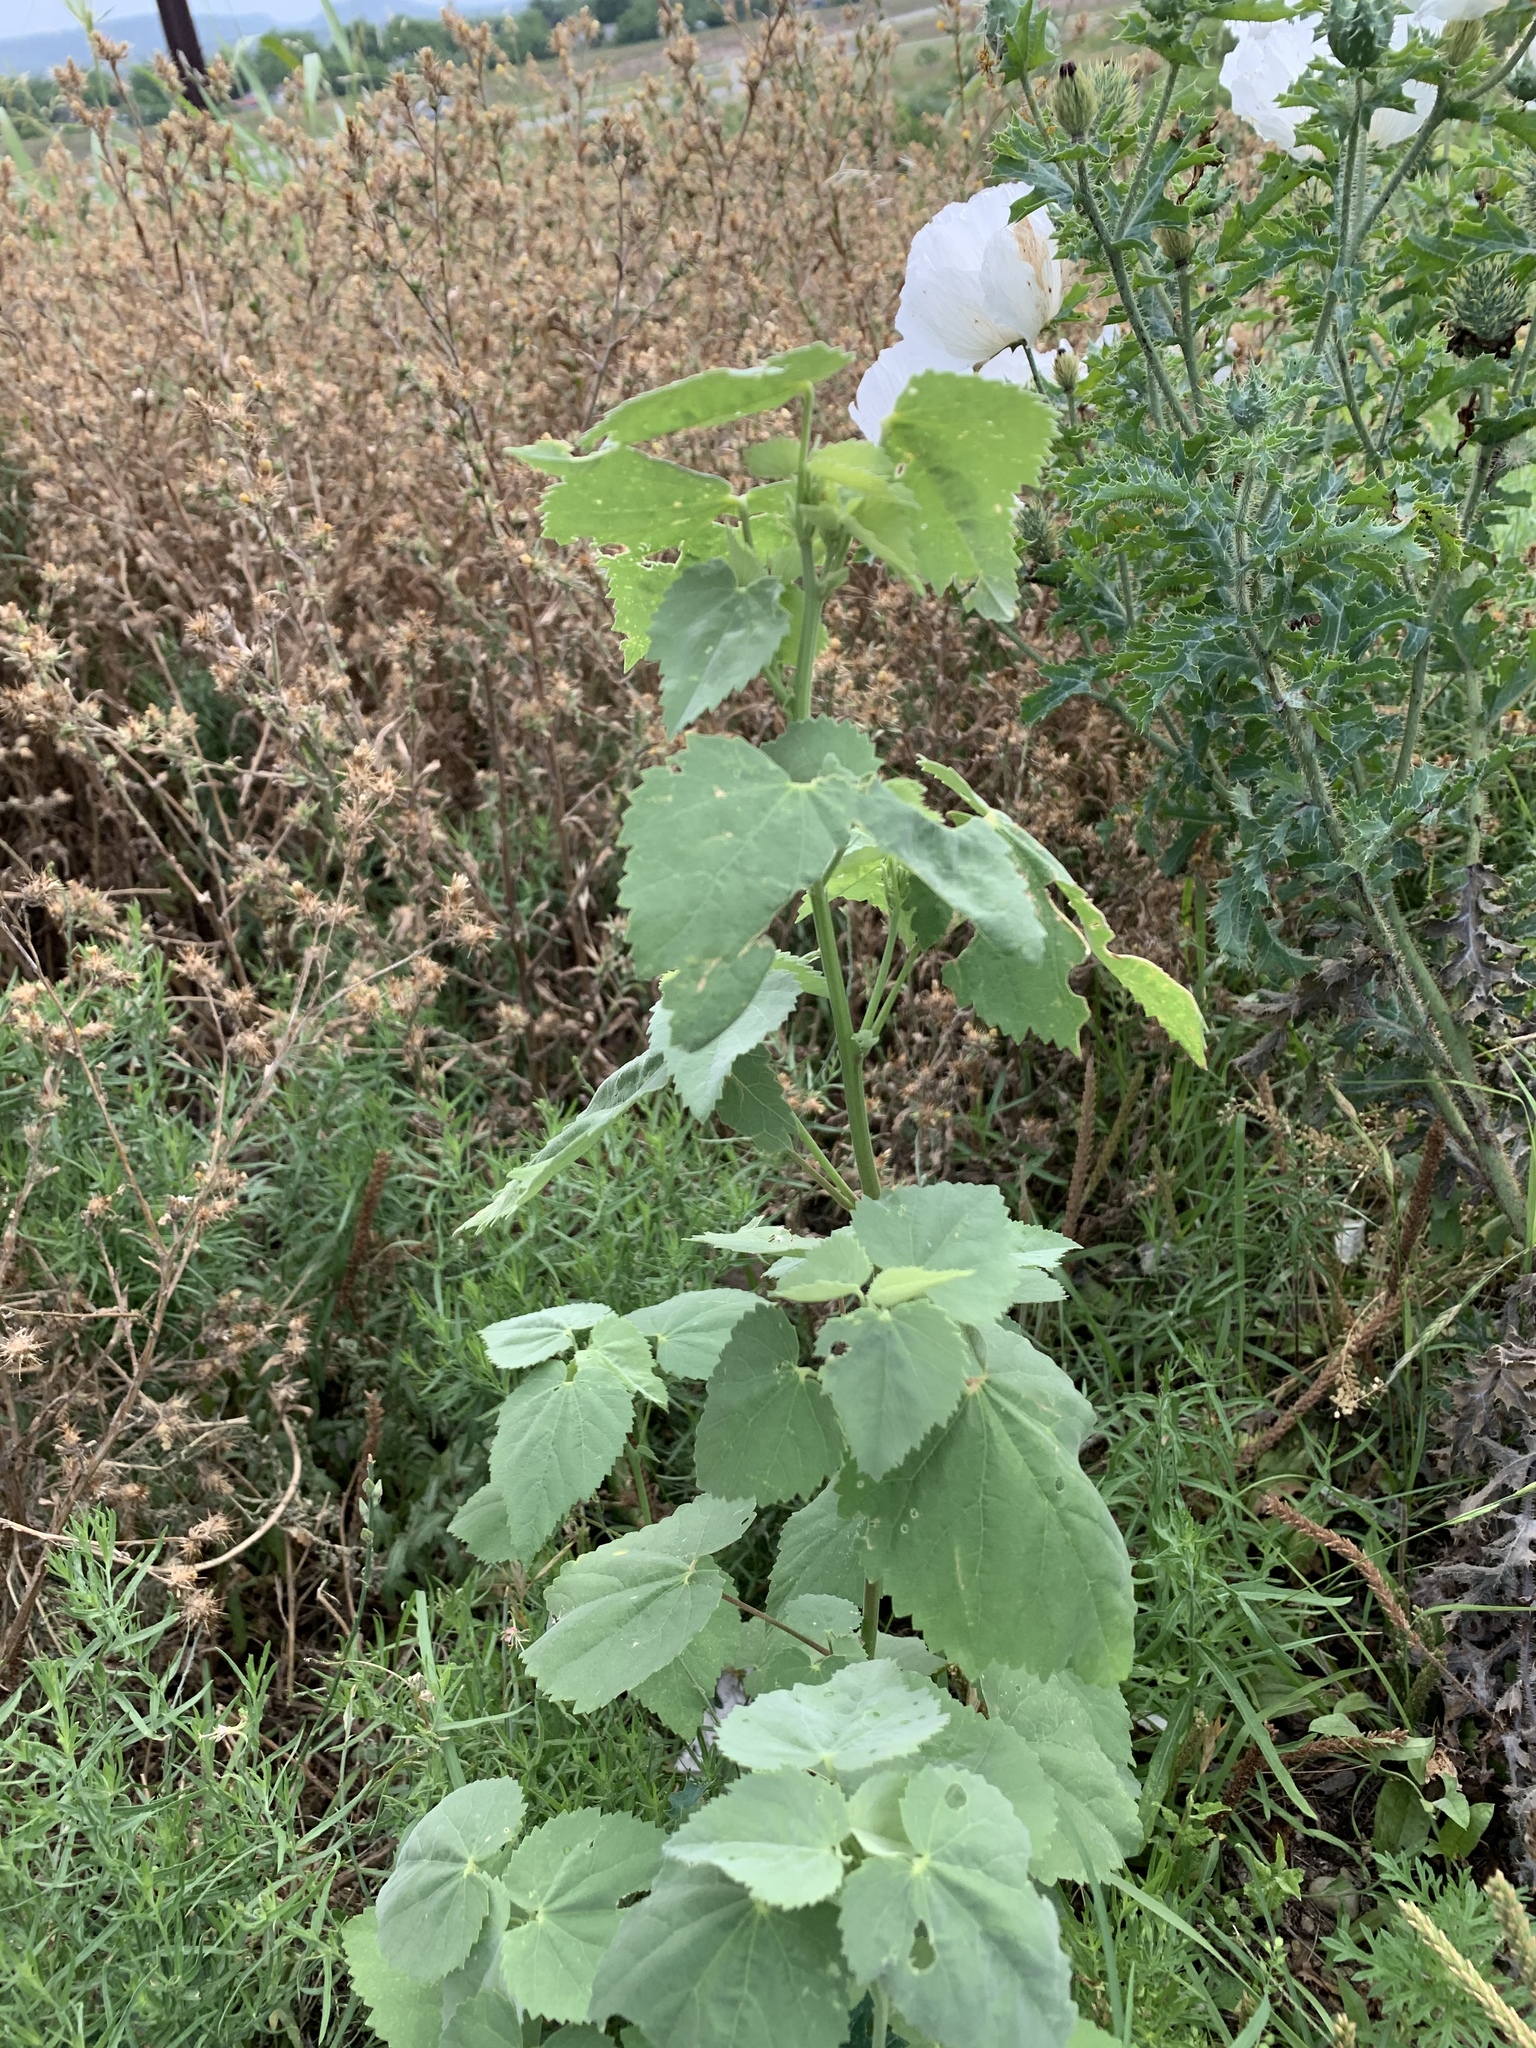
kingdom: Plantae
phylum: Tracheophyta
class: Magnoliopsida
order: Malvales
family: Malvaceae
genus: Abutilon
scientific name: Abutilon fruticosum
